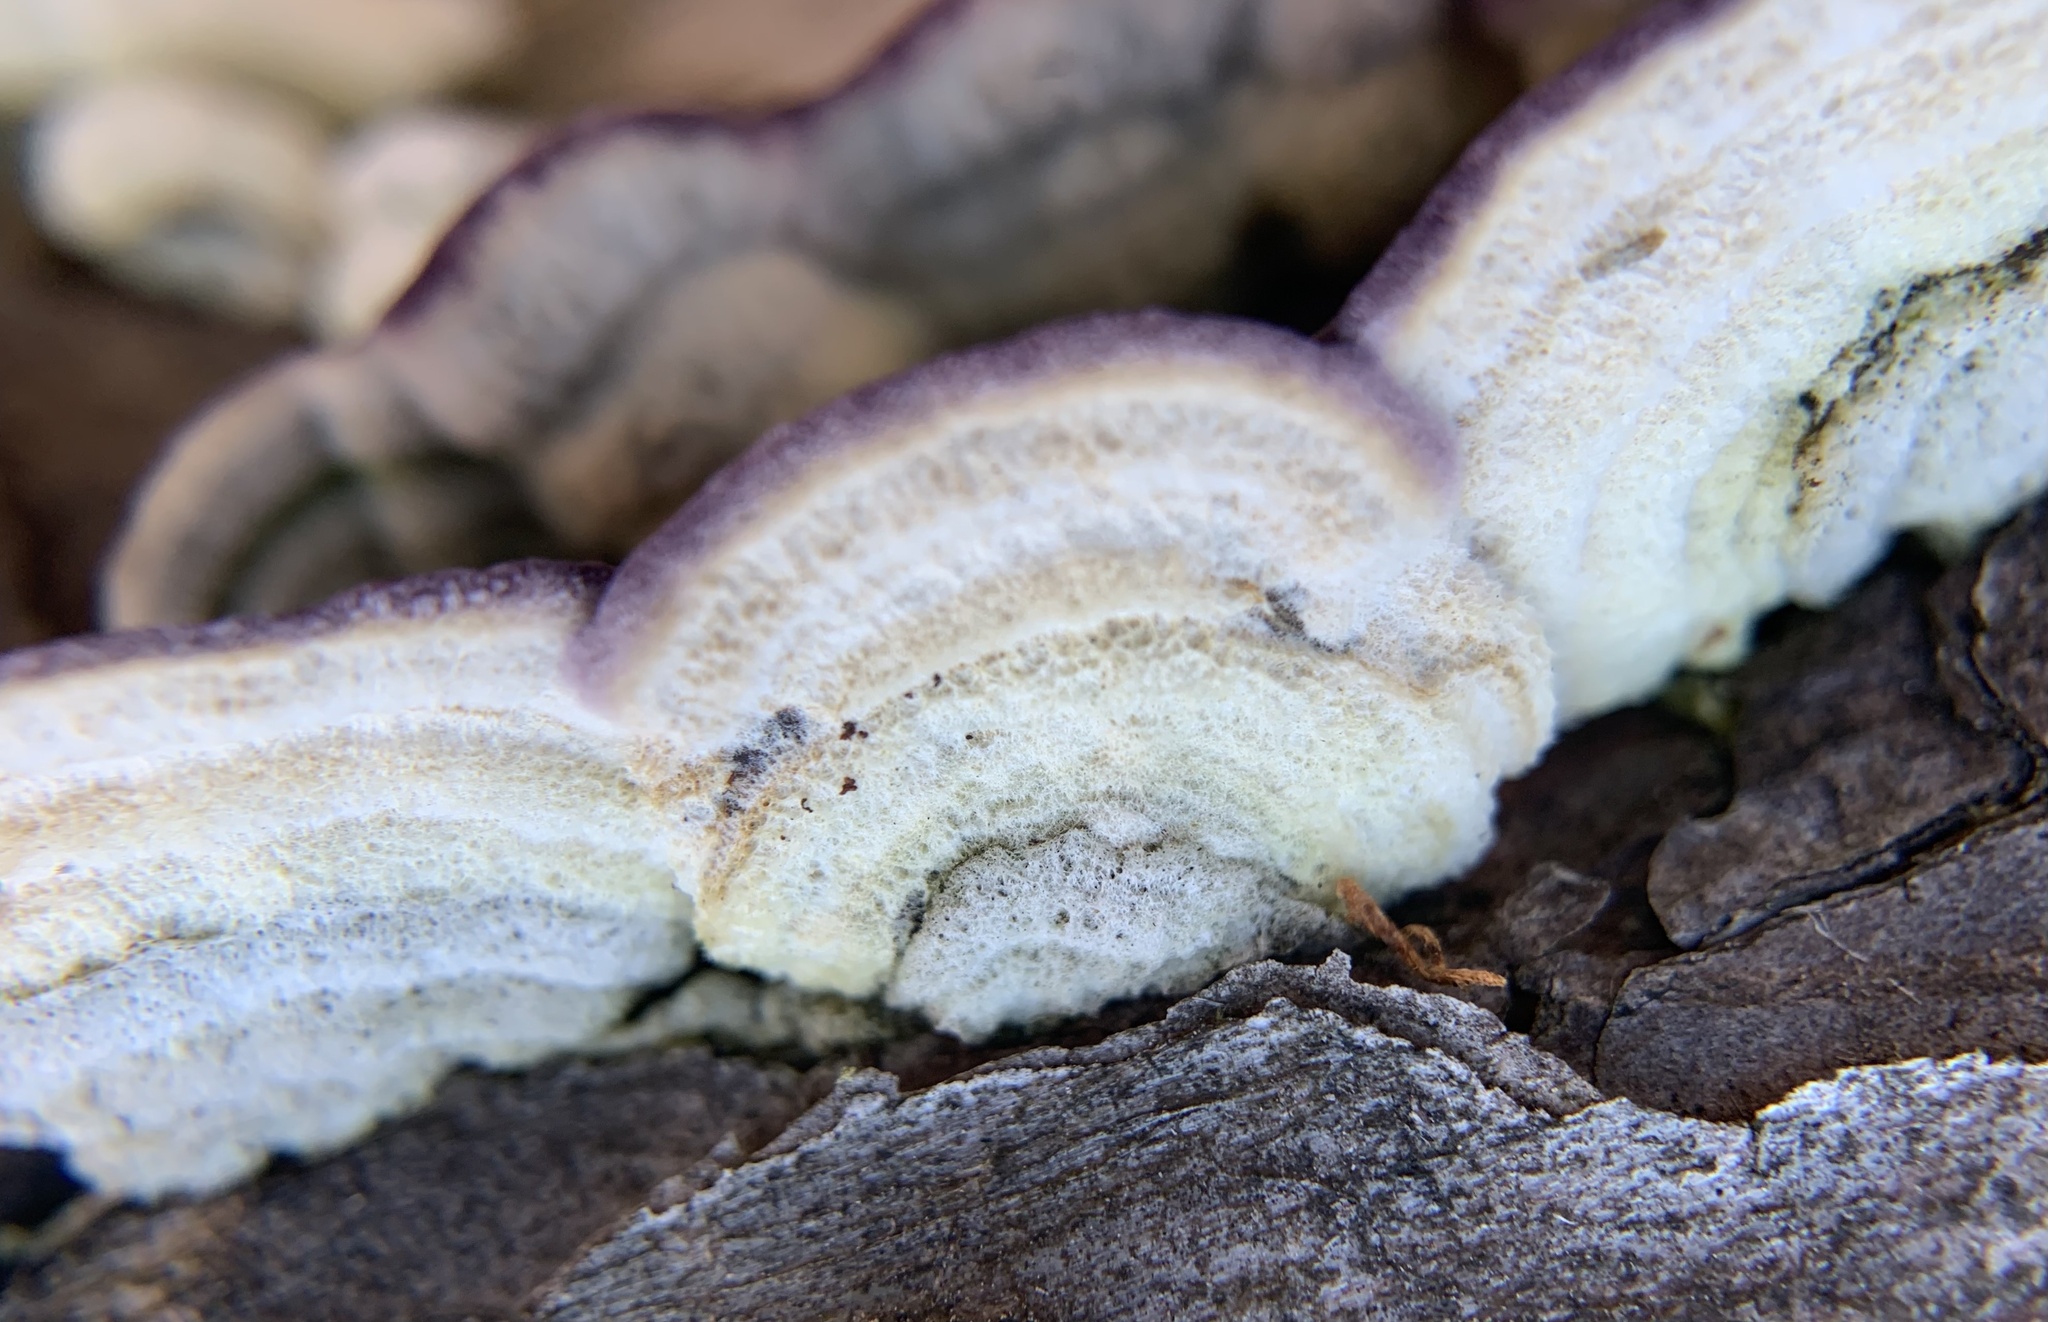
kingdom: Fungi
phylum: Basidiomycota
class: Agaricomycetes
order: Hymenochaetales
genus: Trichaptum
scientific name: Trichaptum laricinum
